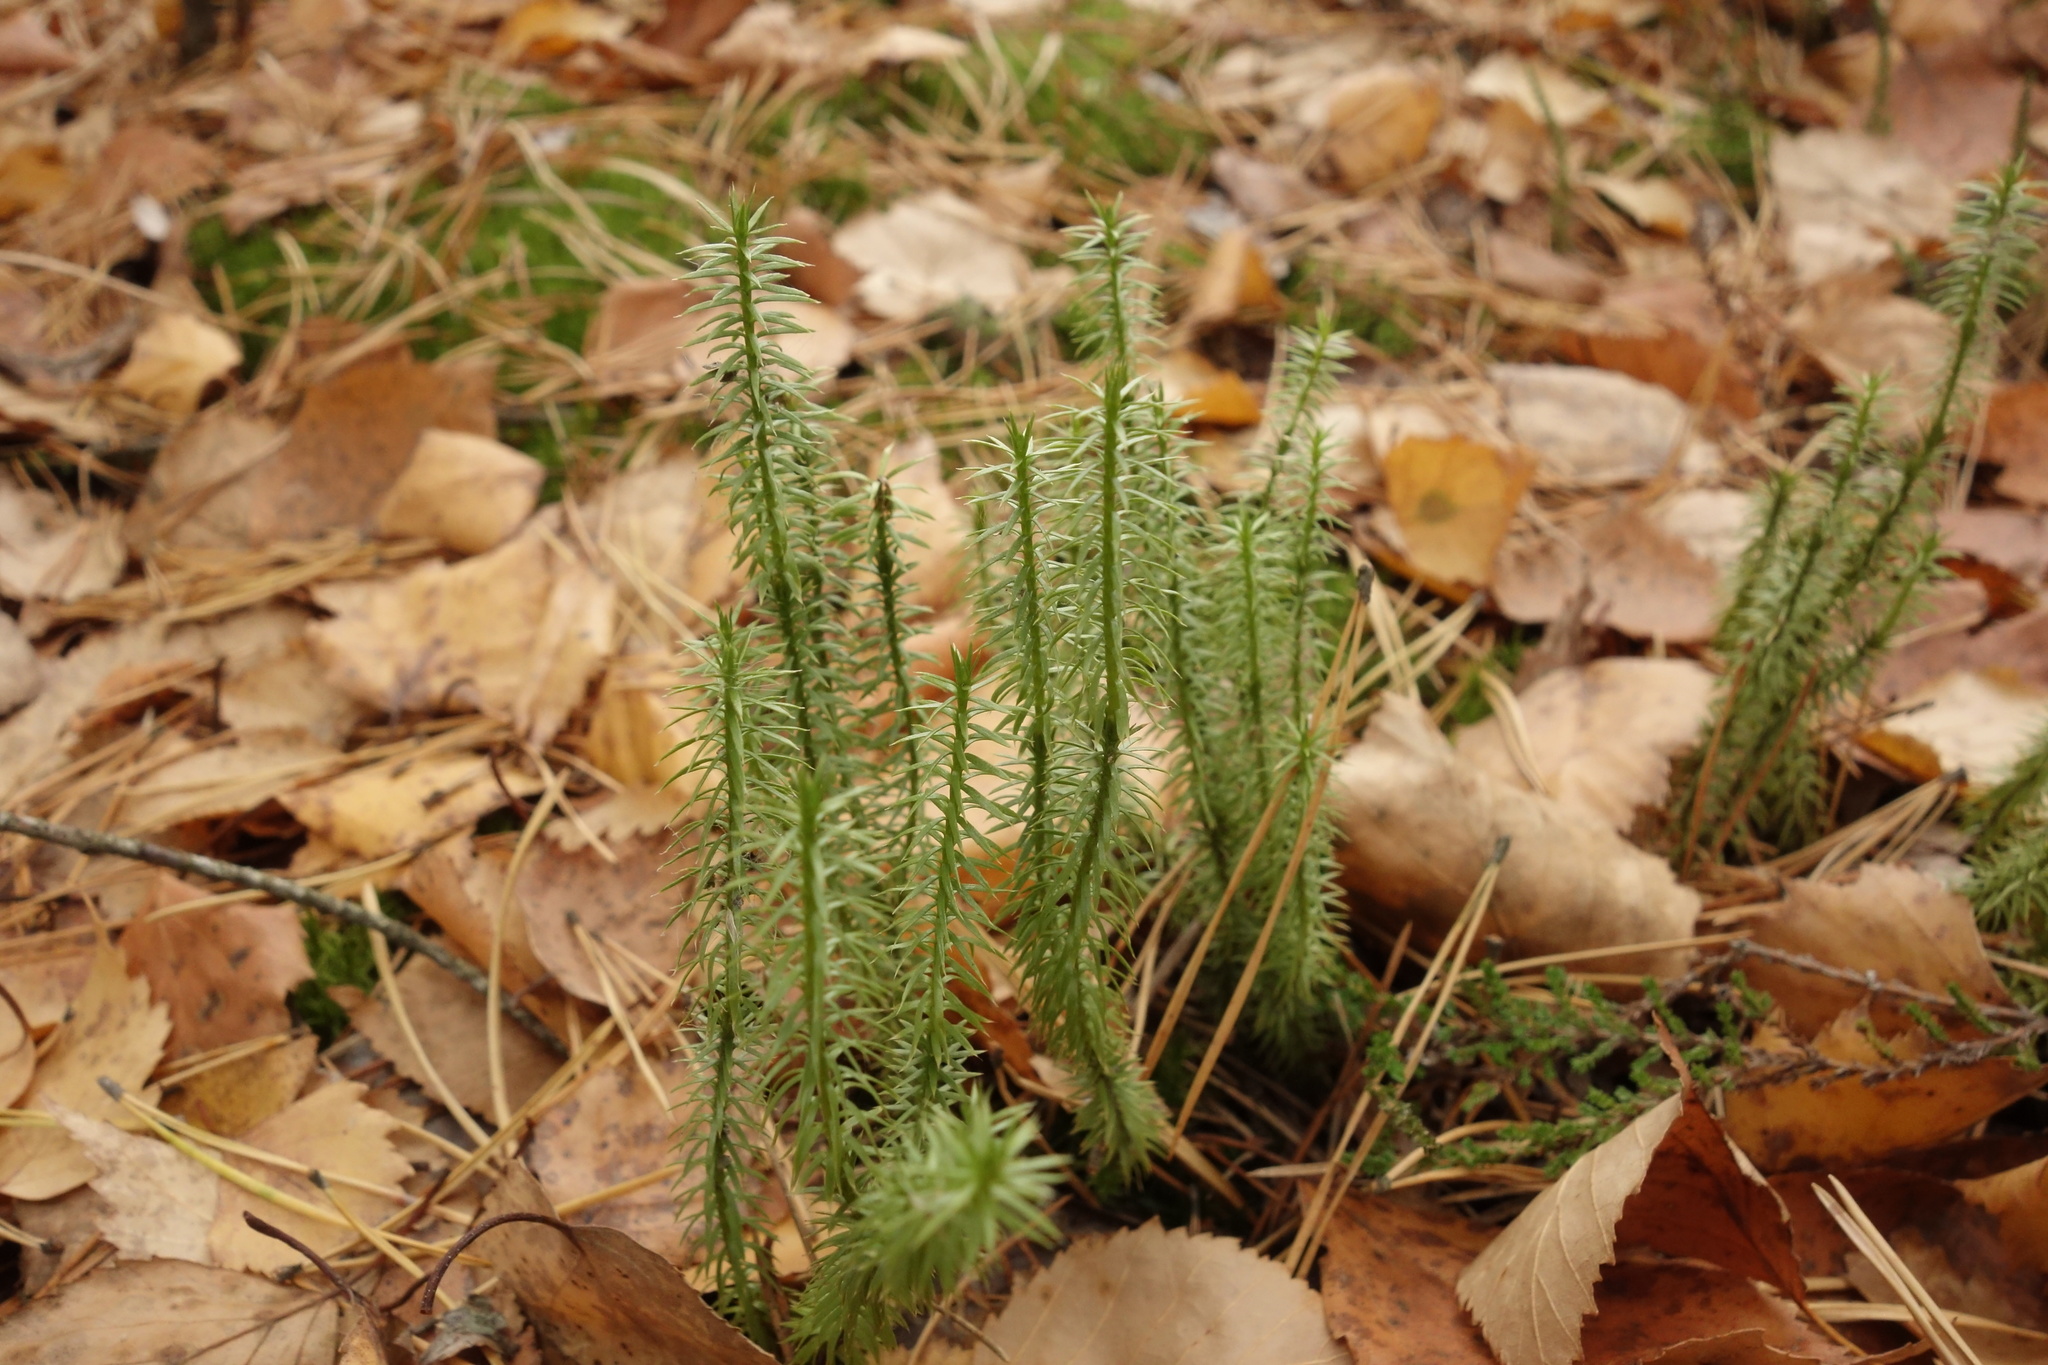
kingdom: Plantae
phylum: Tracheophyta
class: Lycopodiopsida
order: Lycopodiales
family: Lycopodiaceae
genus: Spinulum
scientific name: Spinulum annotinum
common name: Interrupted club-moss
